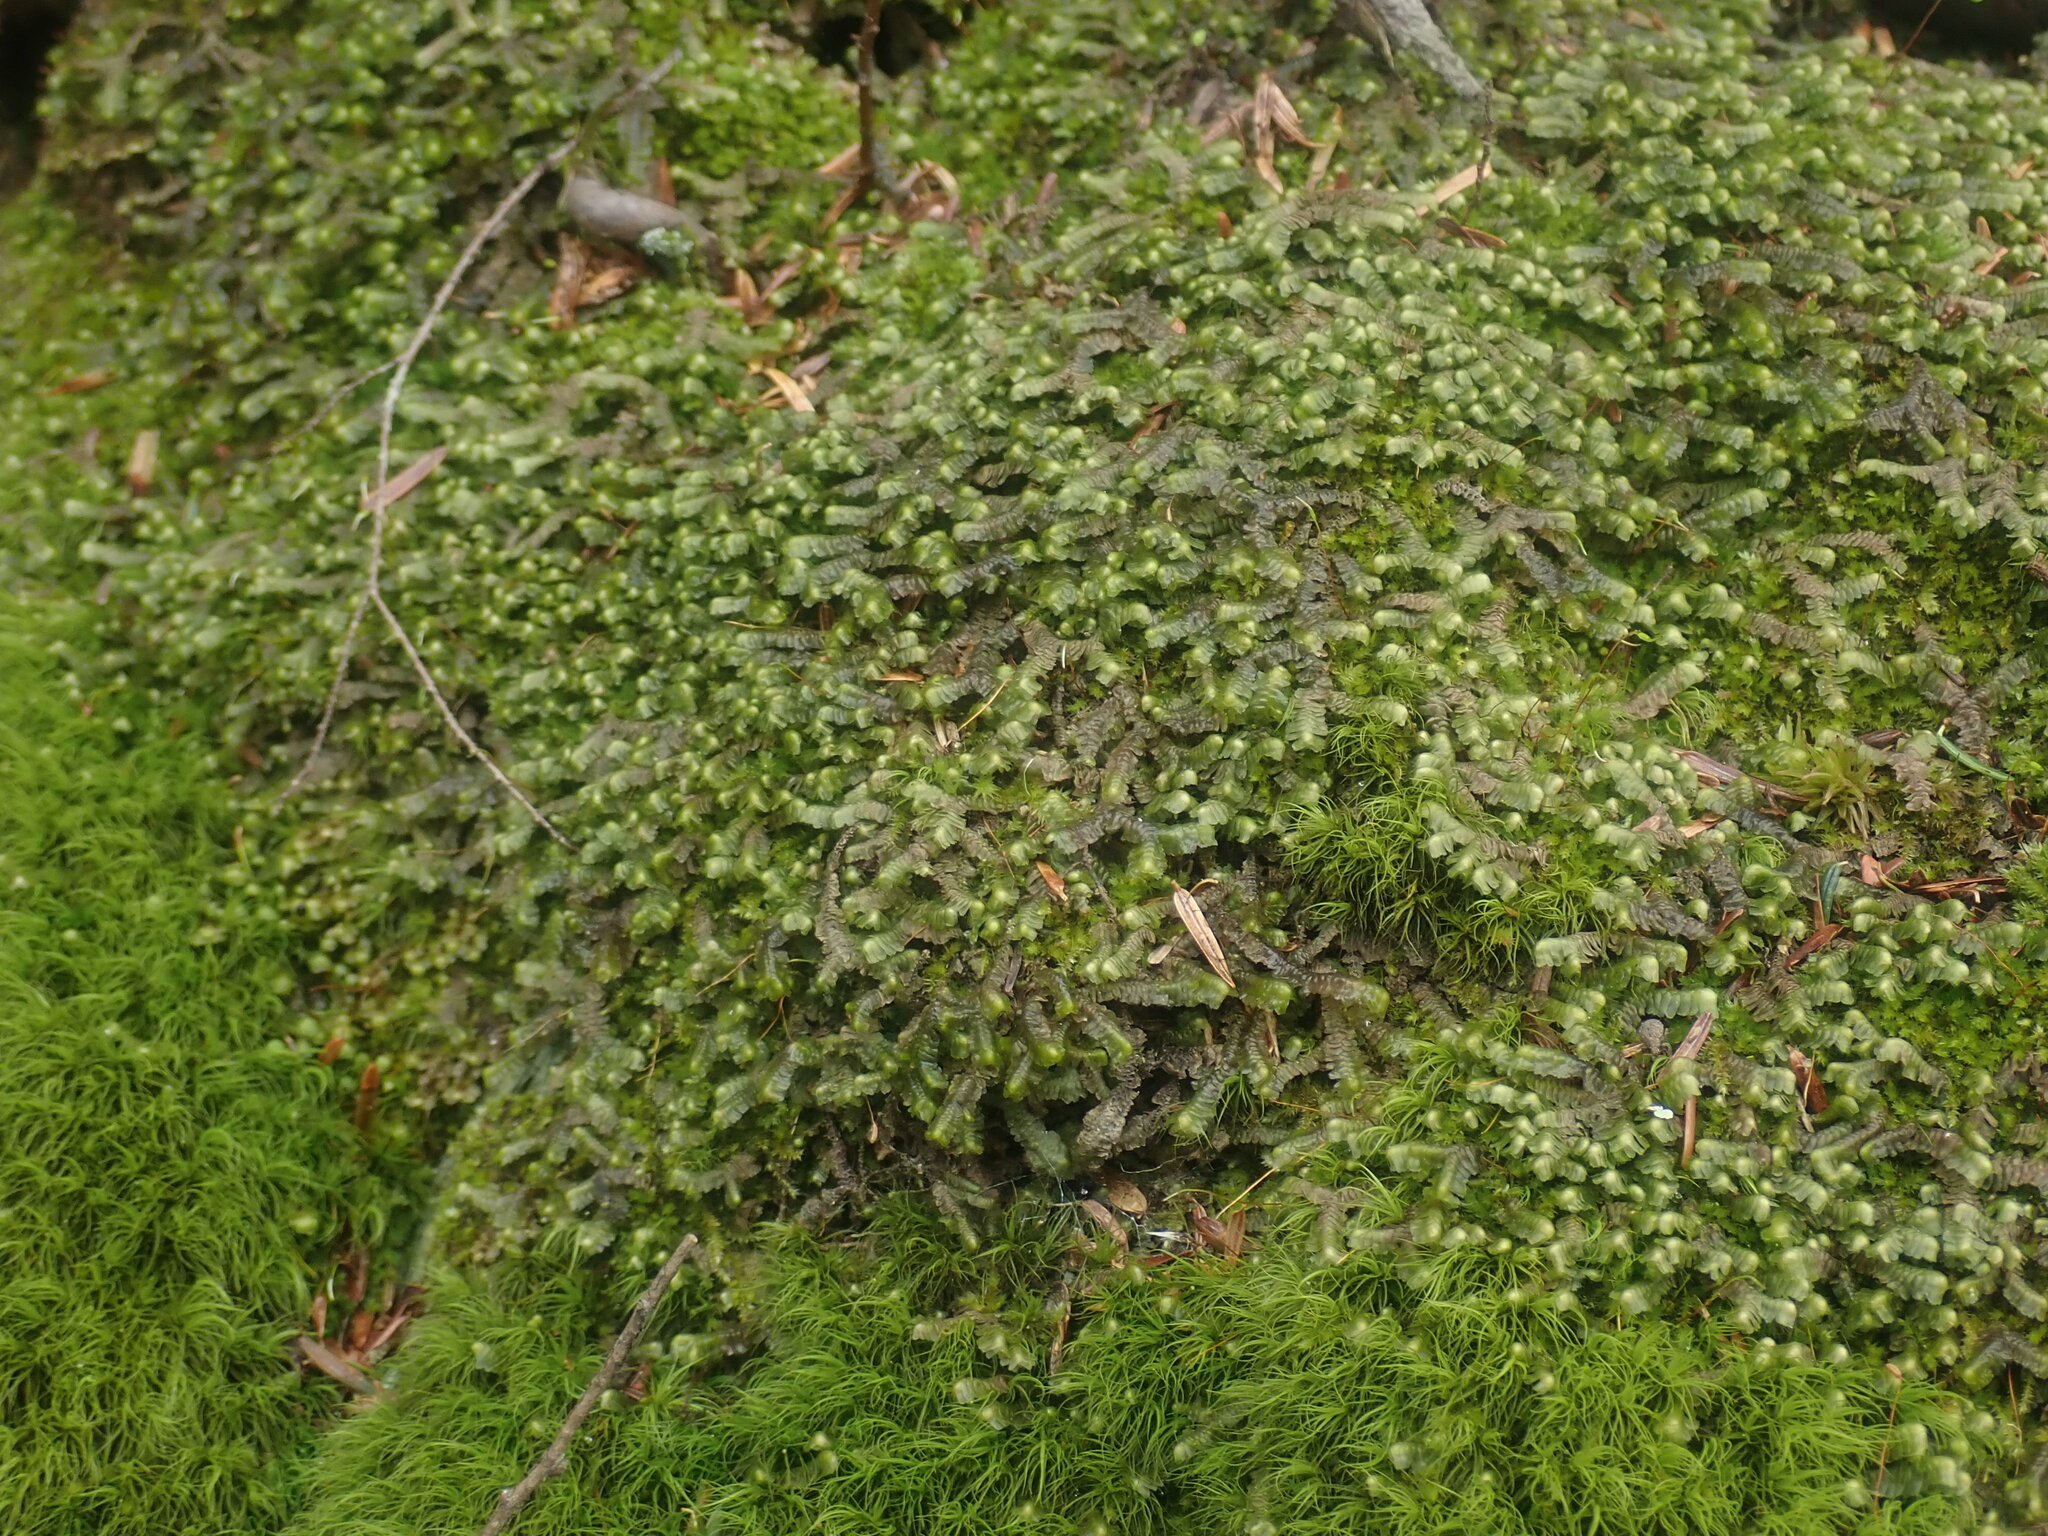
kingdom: Plantae
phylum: Marchantiophyta
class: Jungermanniopsida
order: Jungermanniales
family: Lepidoziaceae
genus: Bazzania
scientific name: Bazzania trilobata
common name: Three-lobed whipwort
